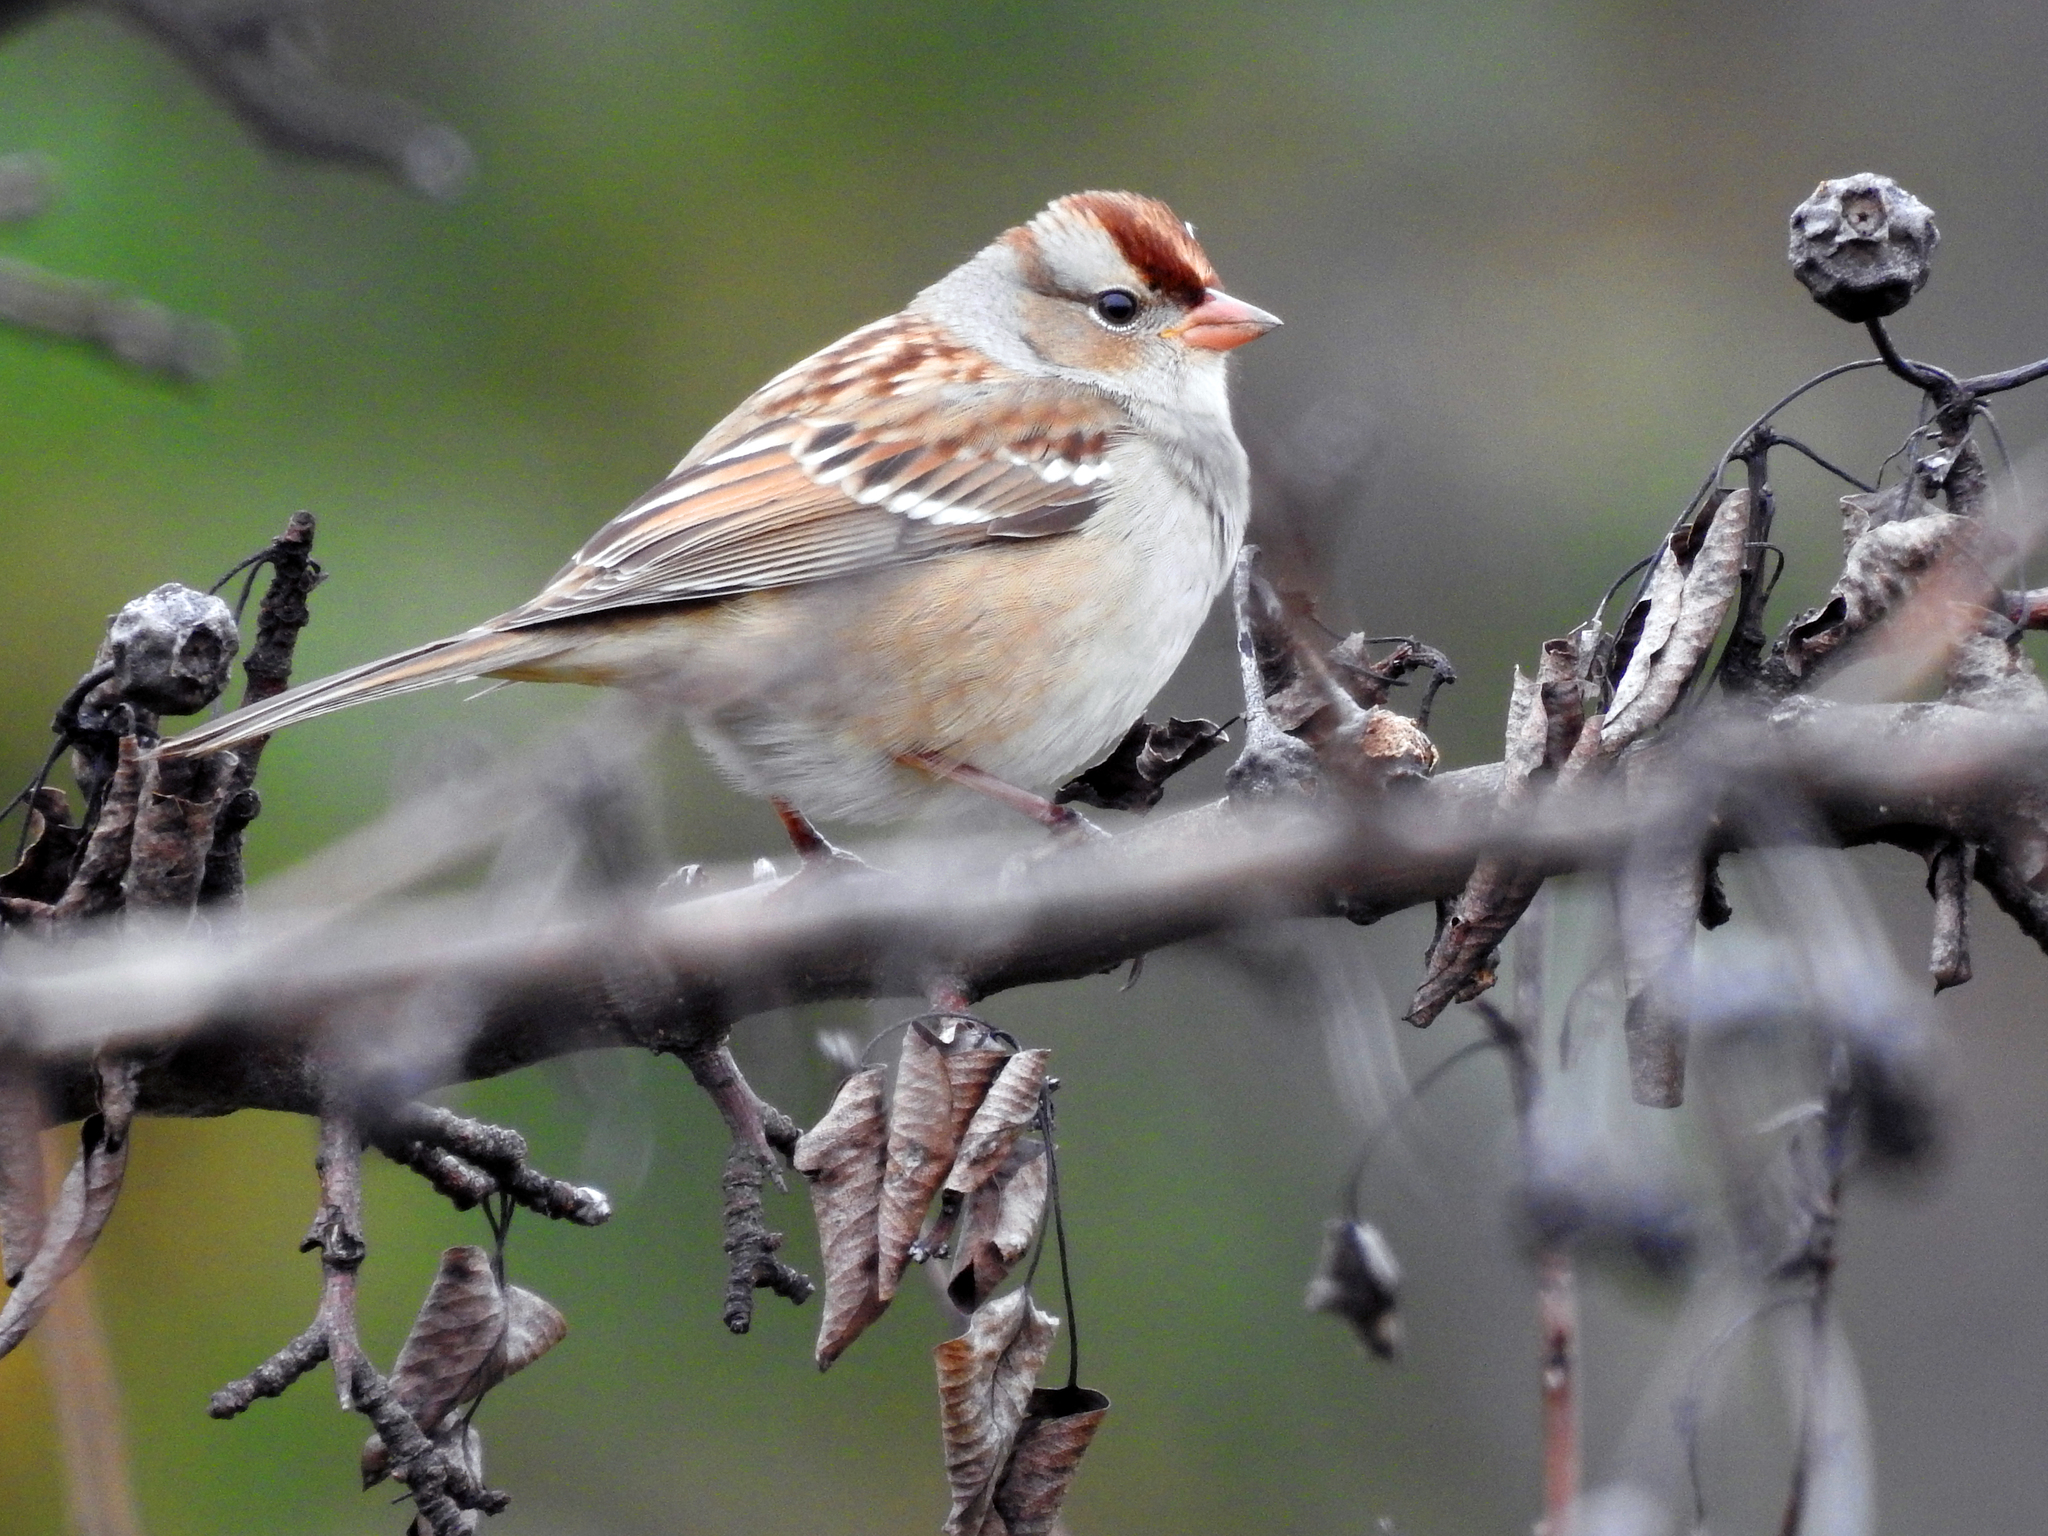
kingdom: Animalia
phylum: Chordata
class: Aves
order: Passeriformes
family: Passerellidae
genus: Zonotrichia
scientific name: Zonotrichia leucophrys
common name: White-crowned sparrow
